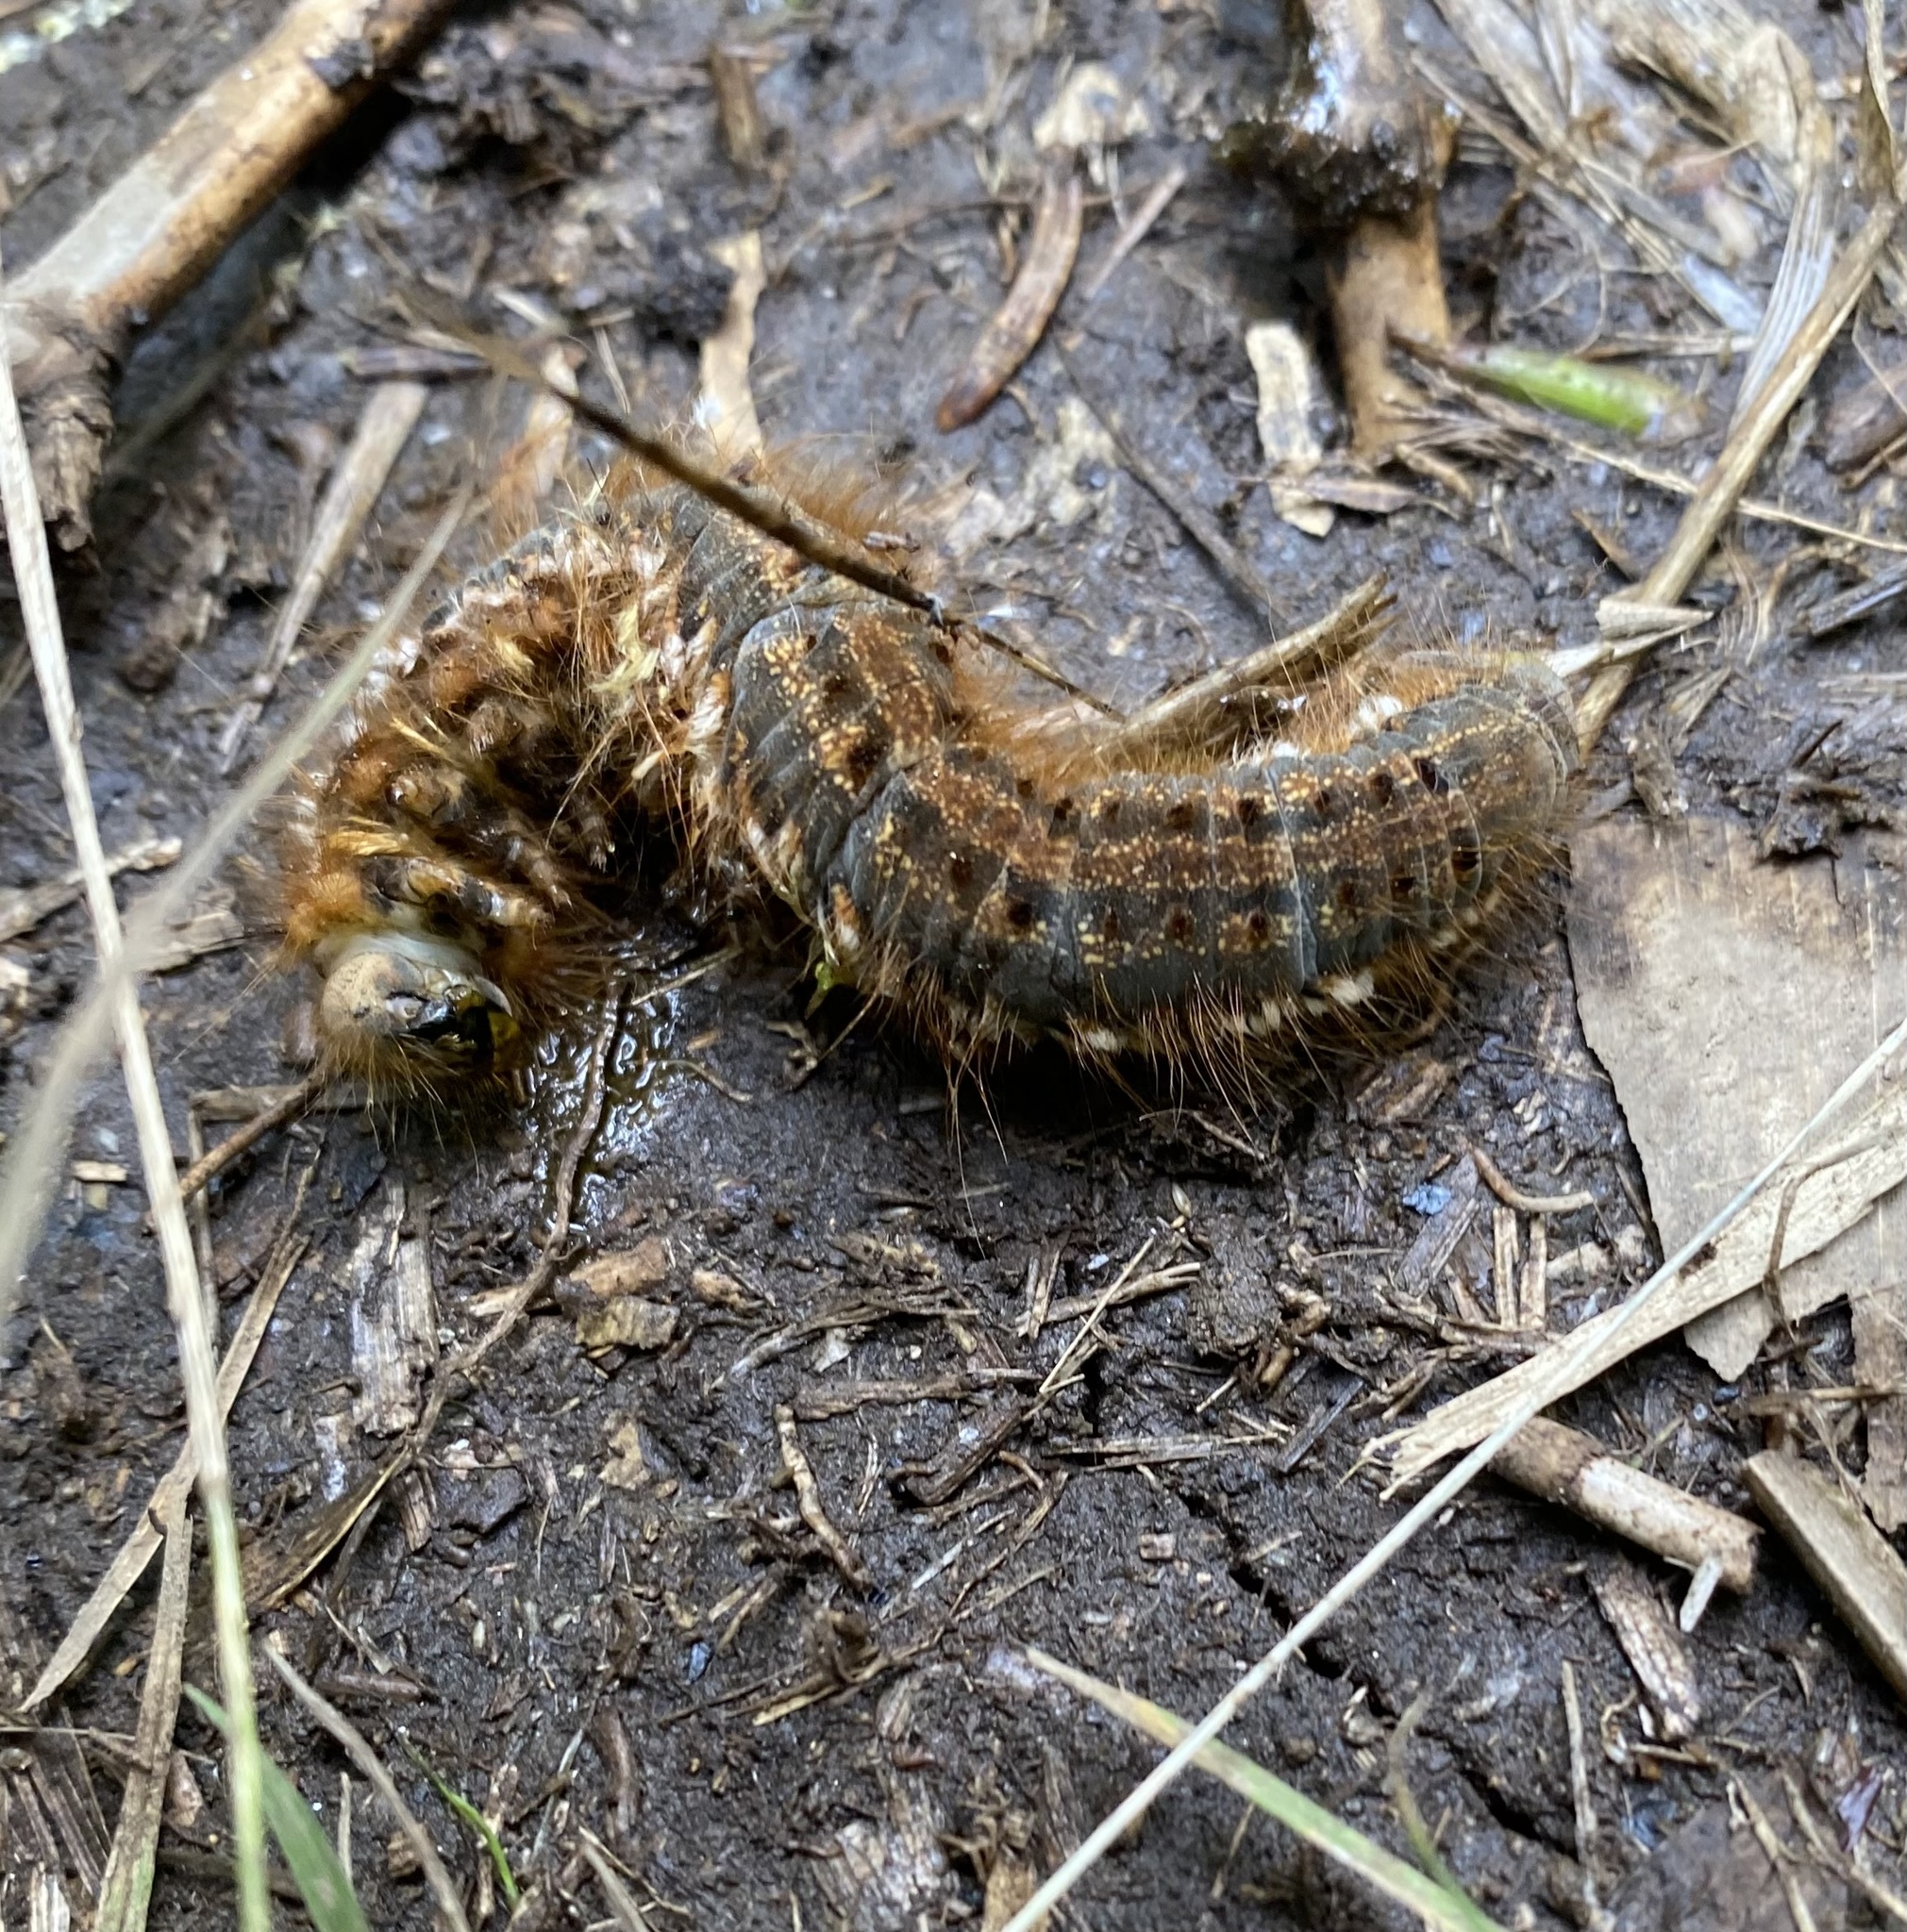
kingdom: Animalia
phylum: Arthropoda
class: Insecta
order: Lepidoptera
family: Lasiocampidae
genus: Euthrix
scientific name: Euthrix potatoria
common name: Drinker
